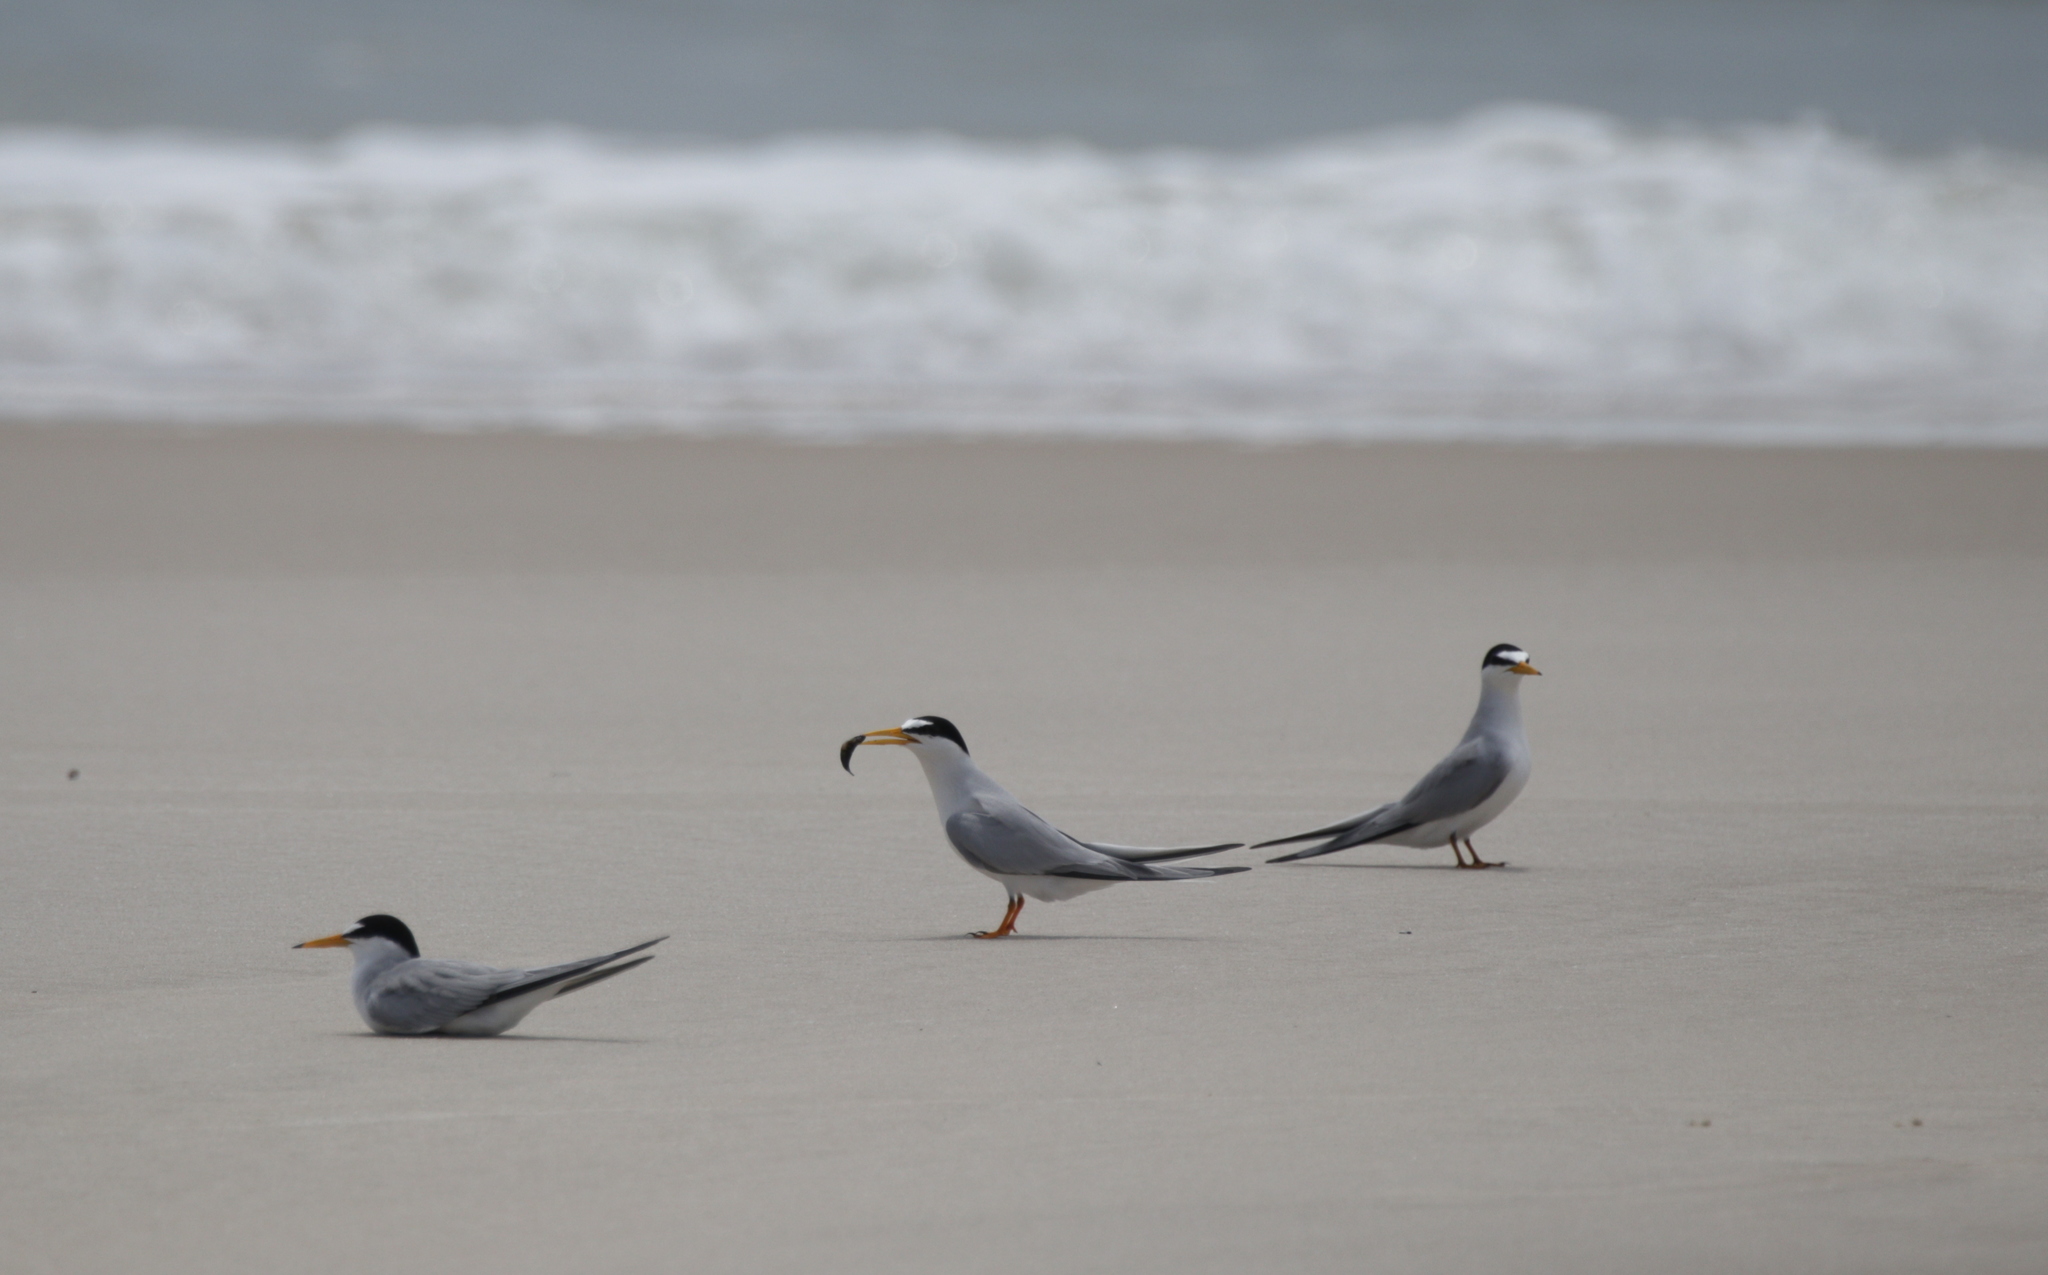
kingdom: Animalia
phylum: Chordata
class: Aves
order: Charadriiformes
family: Laridae
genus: Sternula
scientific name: Sternula antillarum
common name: Least tern
